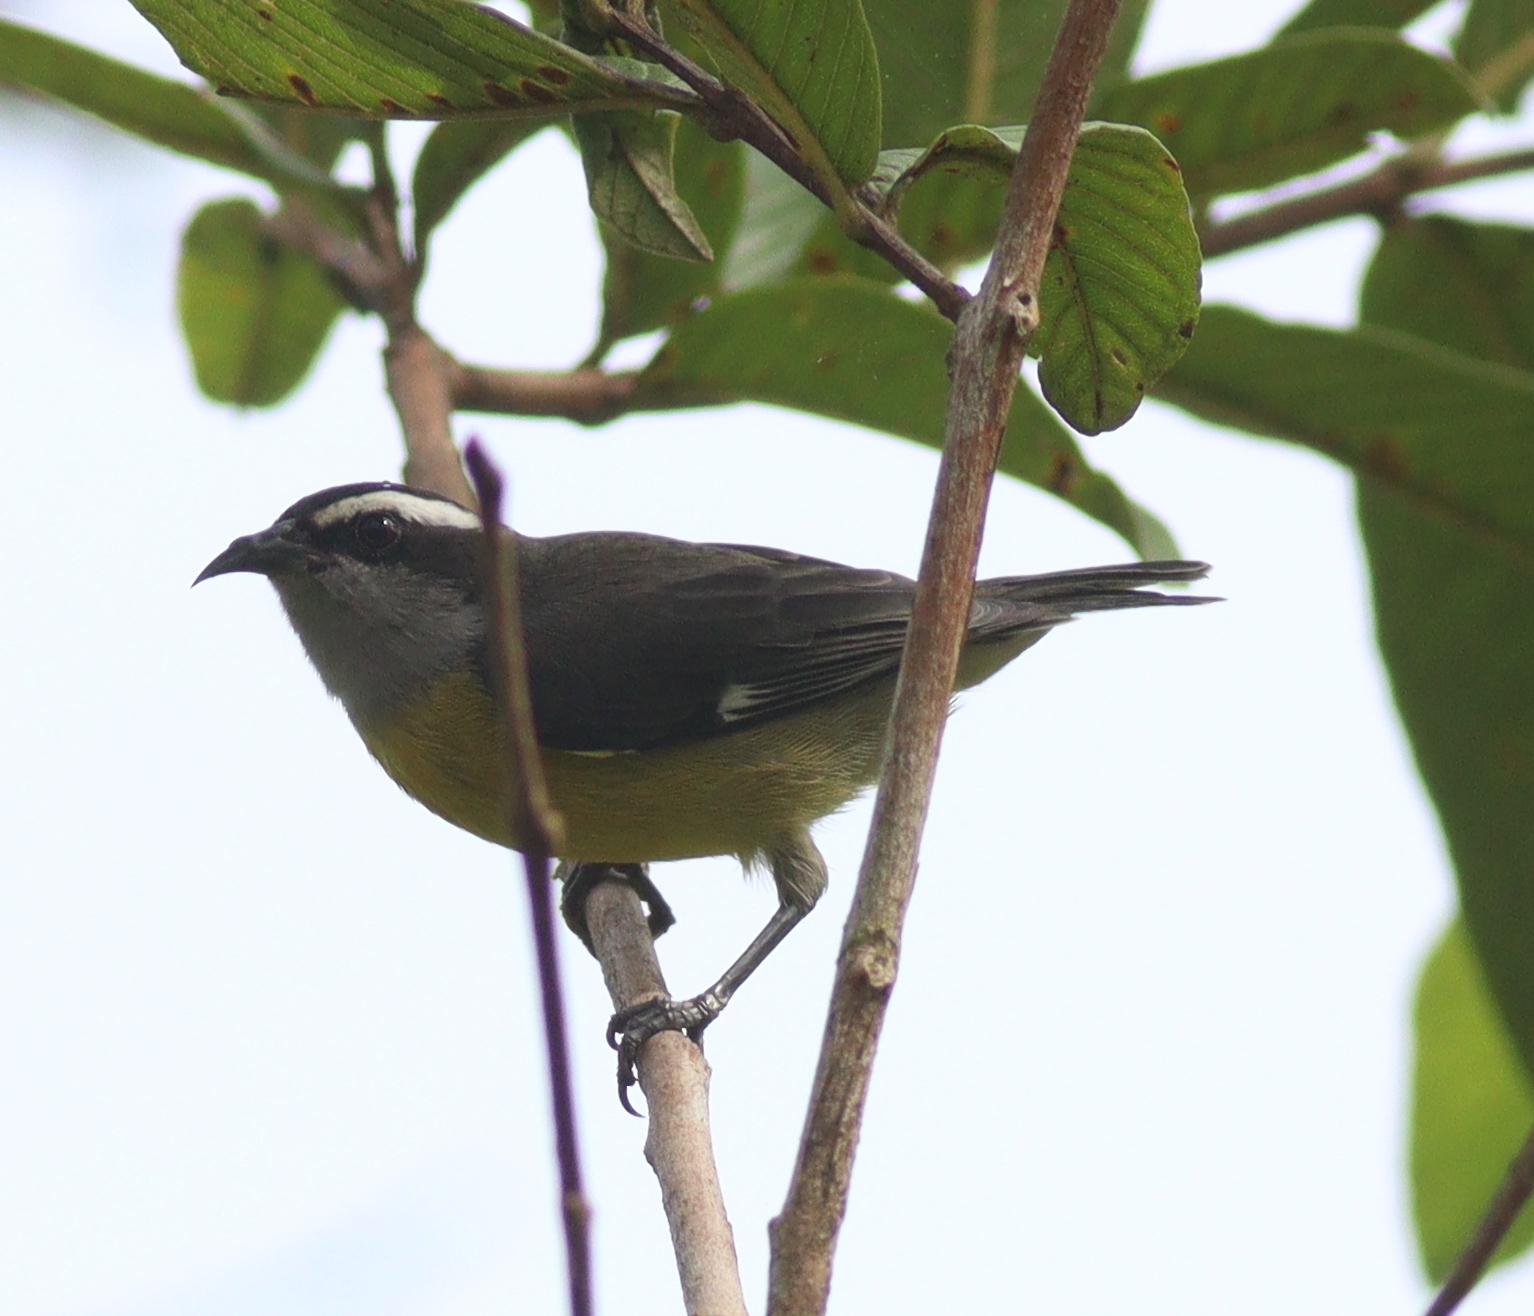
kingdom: Animalia
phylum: Chordata
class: Aves
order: Passeriformes
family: Thraupidae
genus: Coereba
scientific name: Coereba flaveola
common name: Bananaquit
